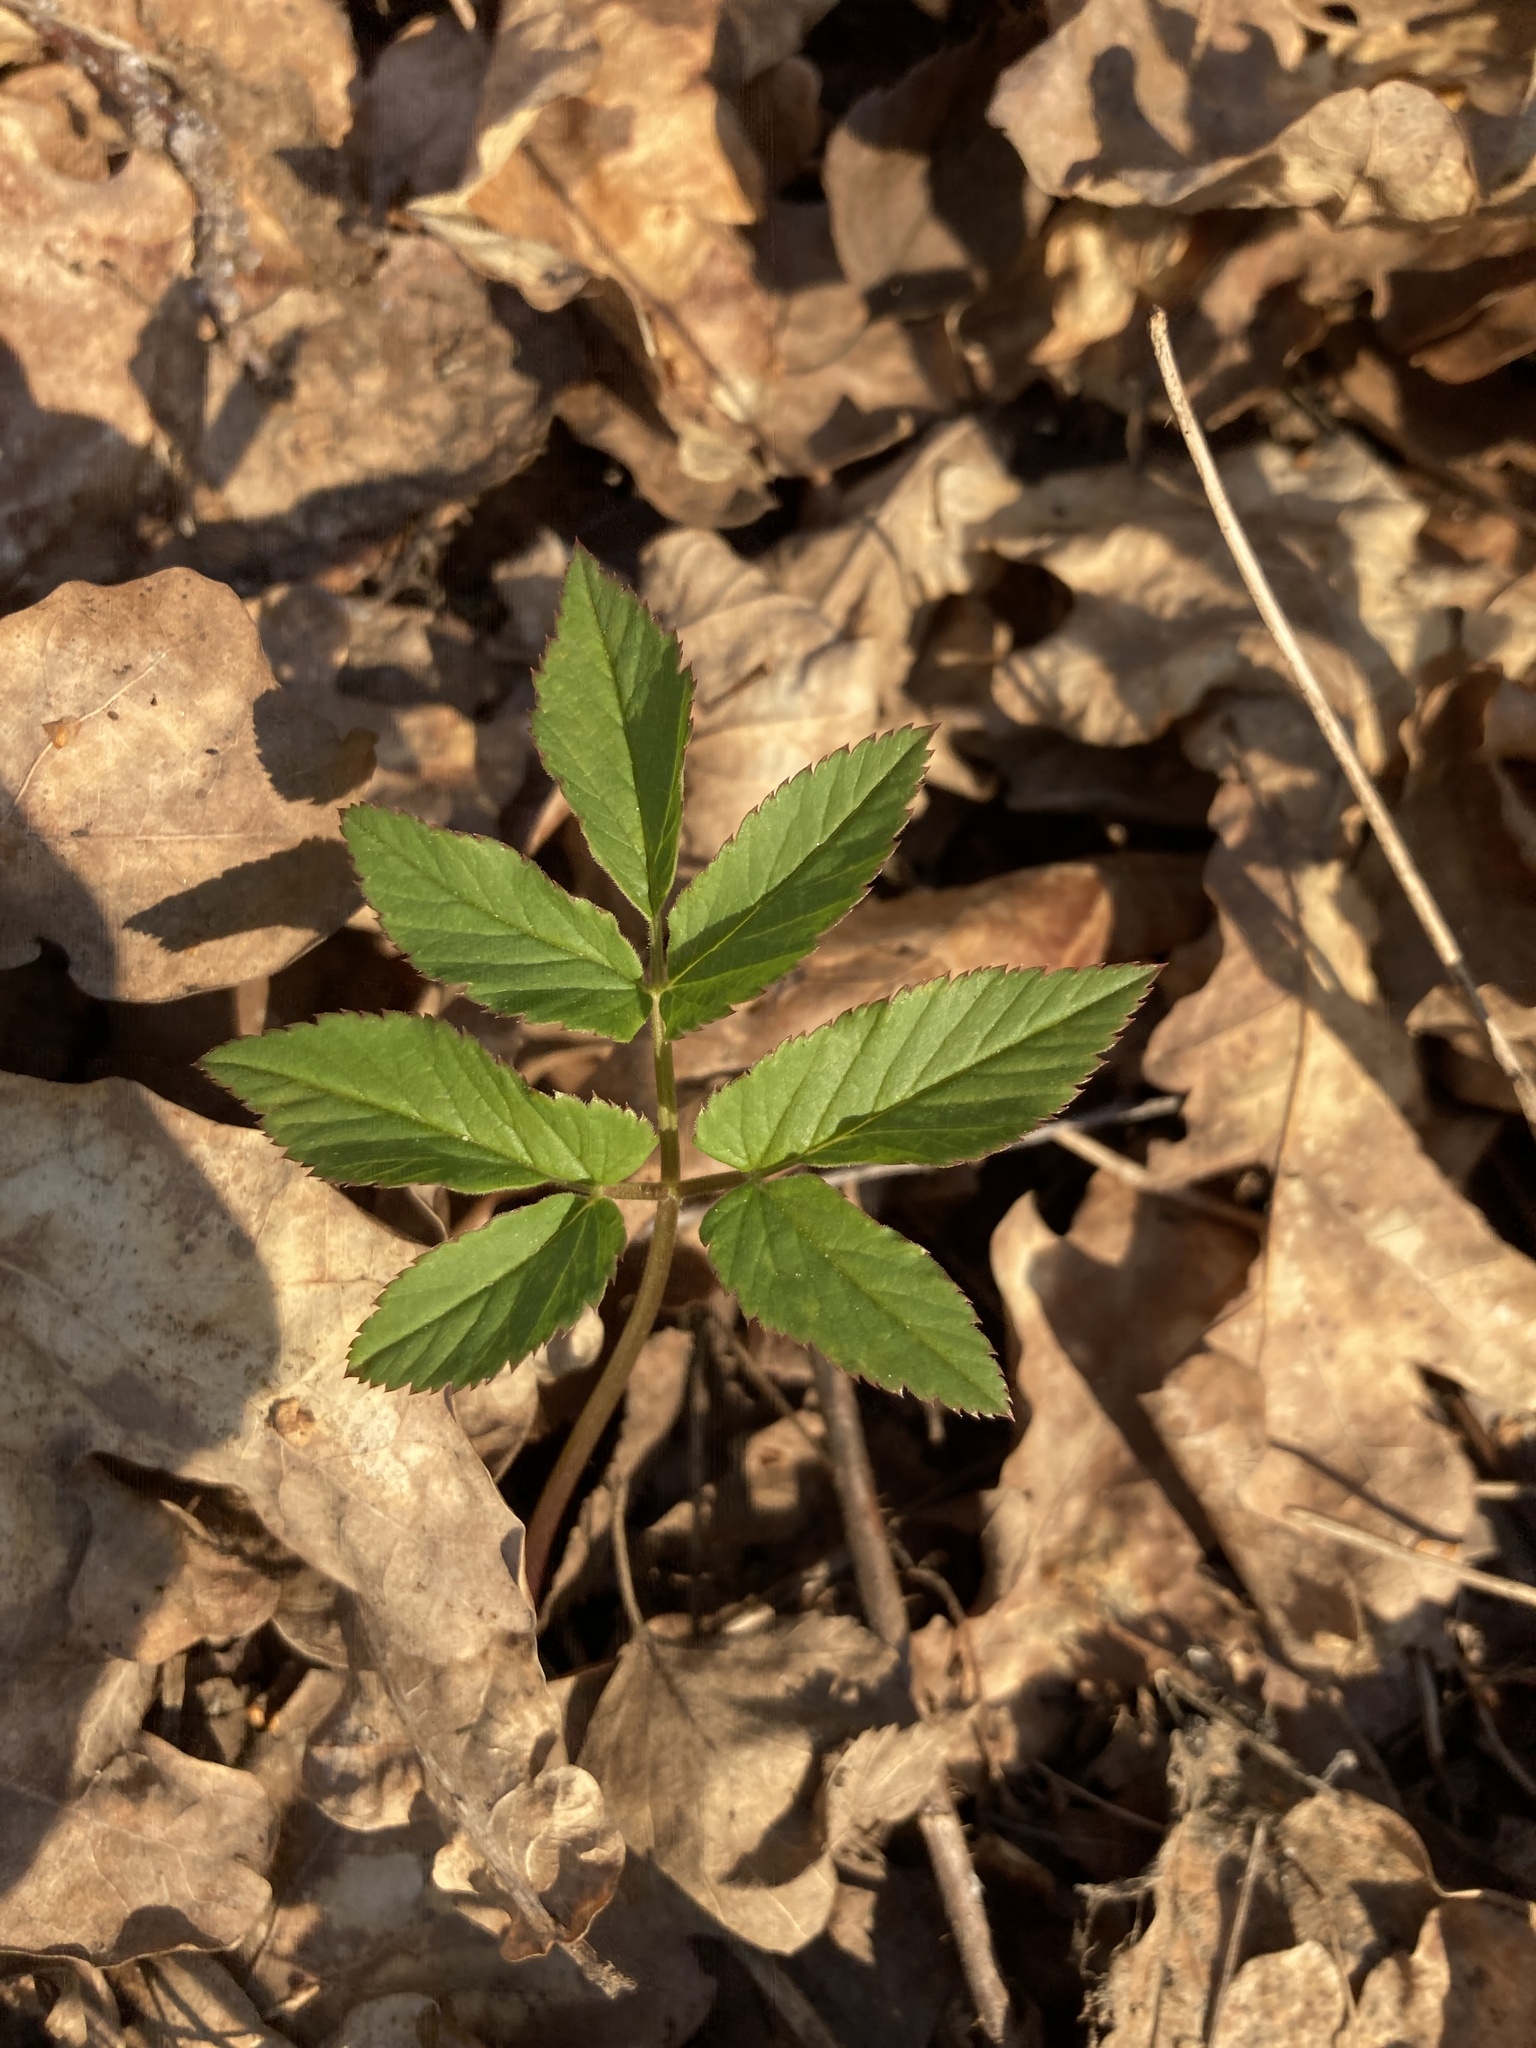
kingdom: Plantae
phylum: Tracheophyta
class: Magnoliopsida
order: Apiales
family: Apiaceae
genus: Aegopodium
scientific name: Aegopodium podagraria
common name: Ground-elder
